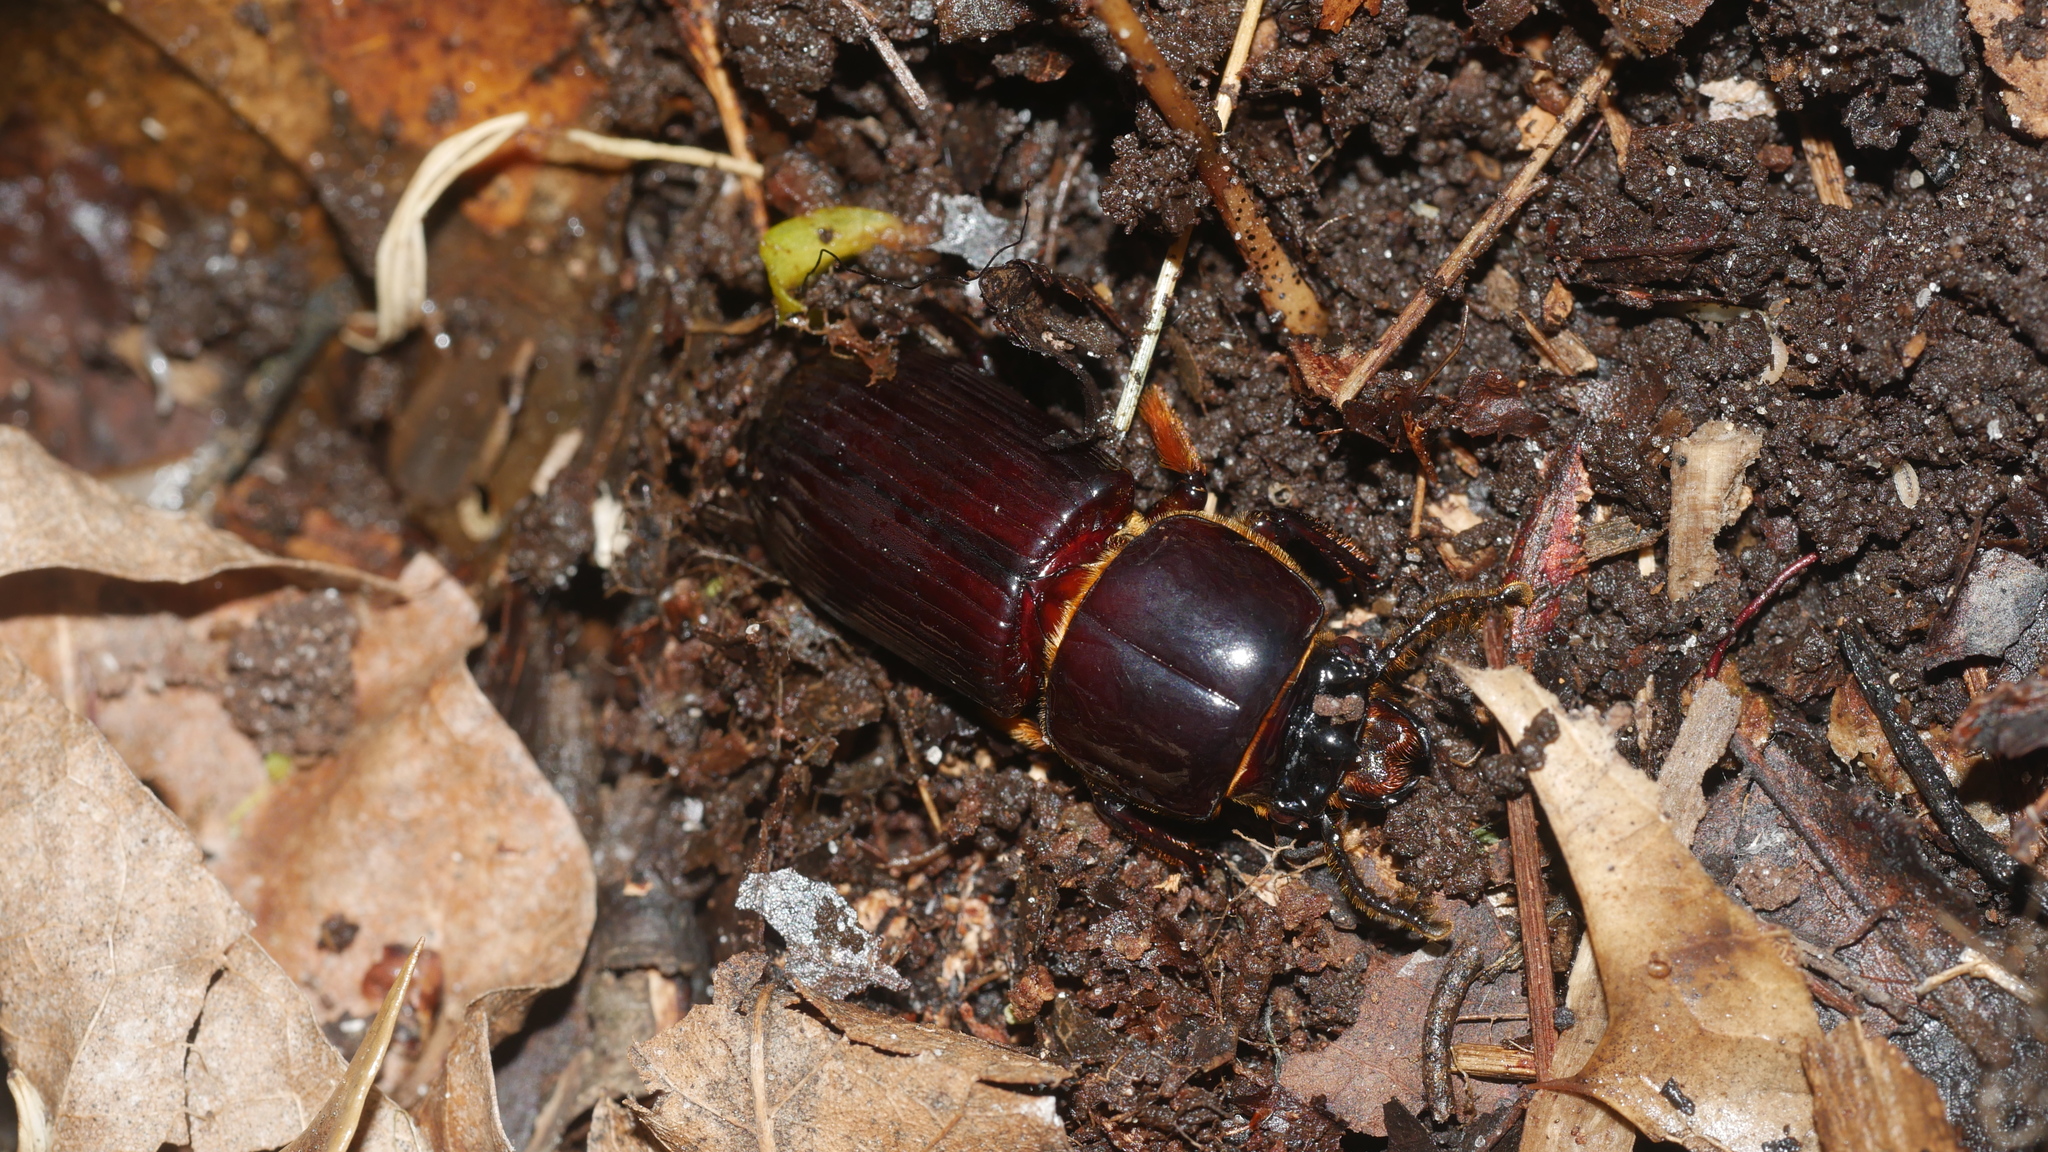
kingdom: Animalia
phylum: Arthropoda
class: Insecta
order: Coleoptera
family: Passalidae
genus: Odontotaenius
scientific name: Odontotaenius disjunctus
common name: Patent leather beetle
